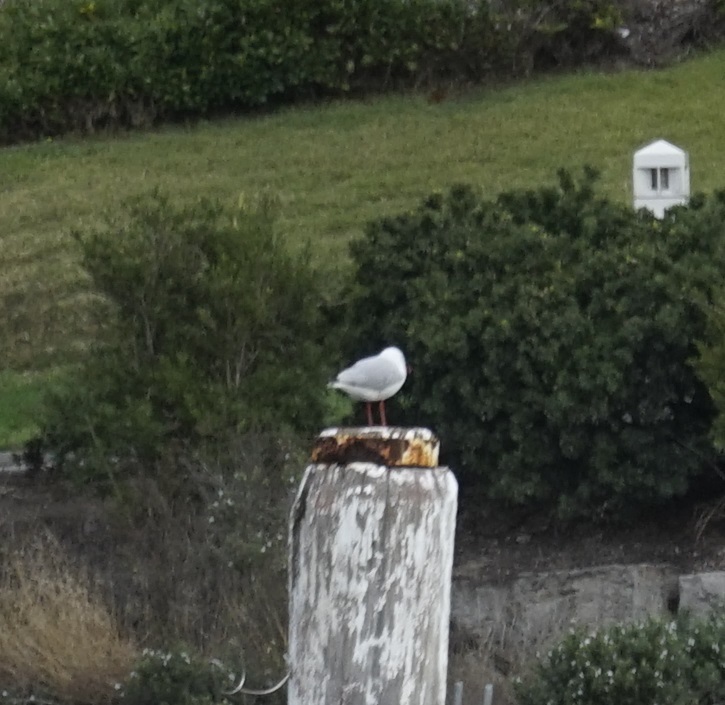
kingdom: Animalia
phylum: Chordata
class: Aves
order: Charadriiformes
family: Laridae
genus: Chroicocephalus
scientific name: Chroicocephalus novaehollandiae
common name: Silver gull
